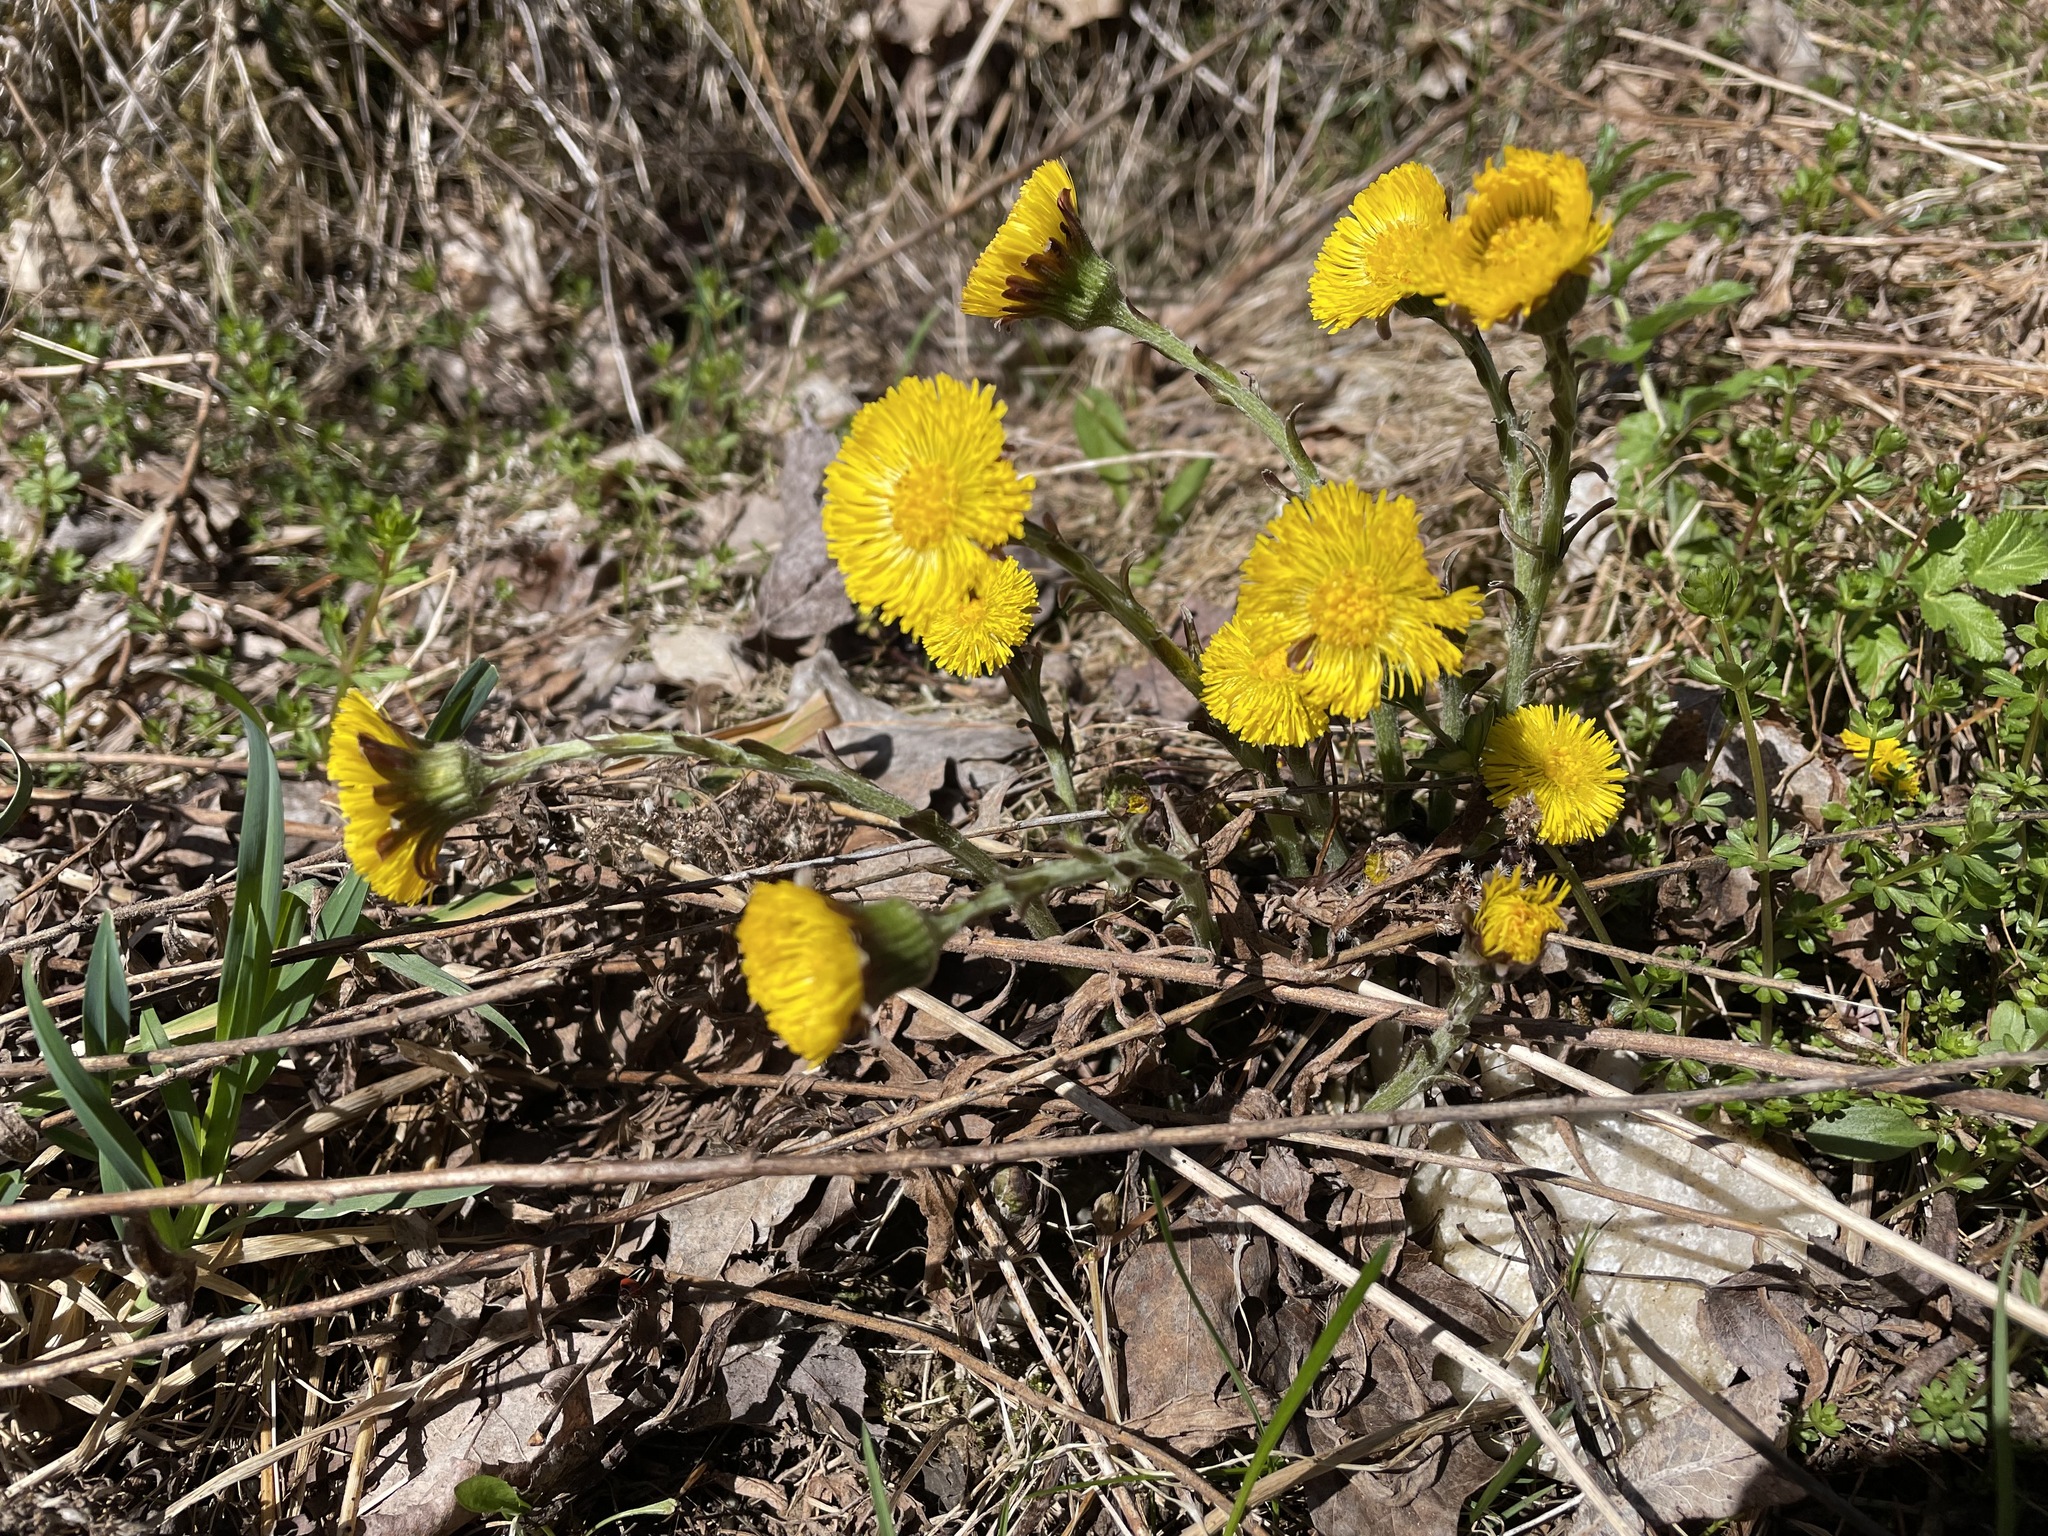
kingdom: Plantae
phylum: Tracheophyta
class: Magnoliopsida
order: Asterales
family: Asteraceae
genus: Tussilago
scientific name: Tussilago farfara
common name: Coltsfoot
